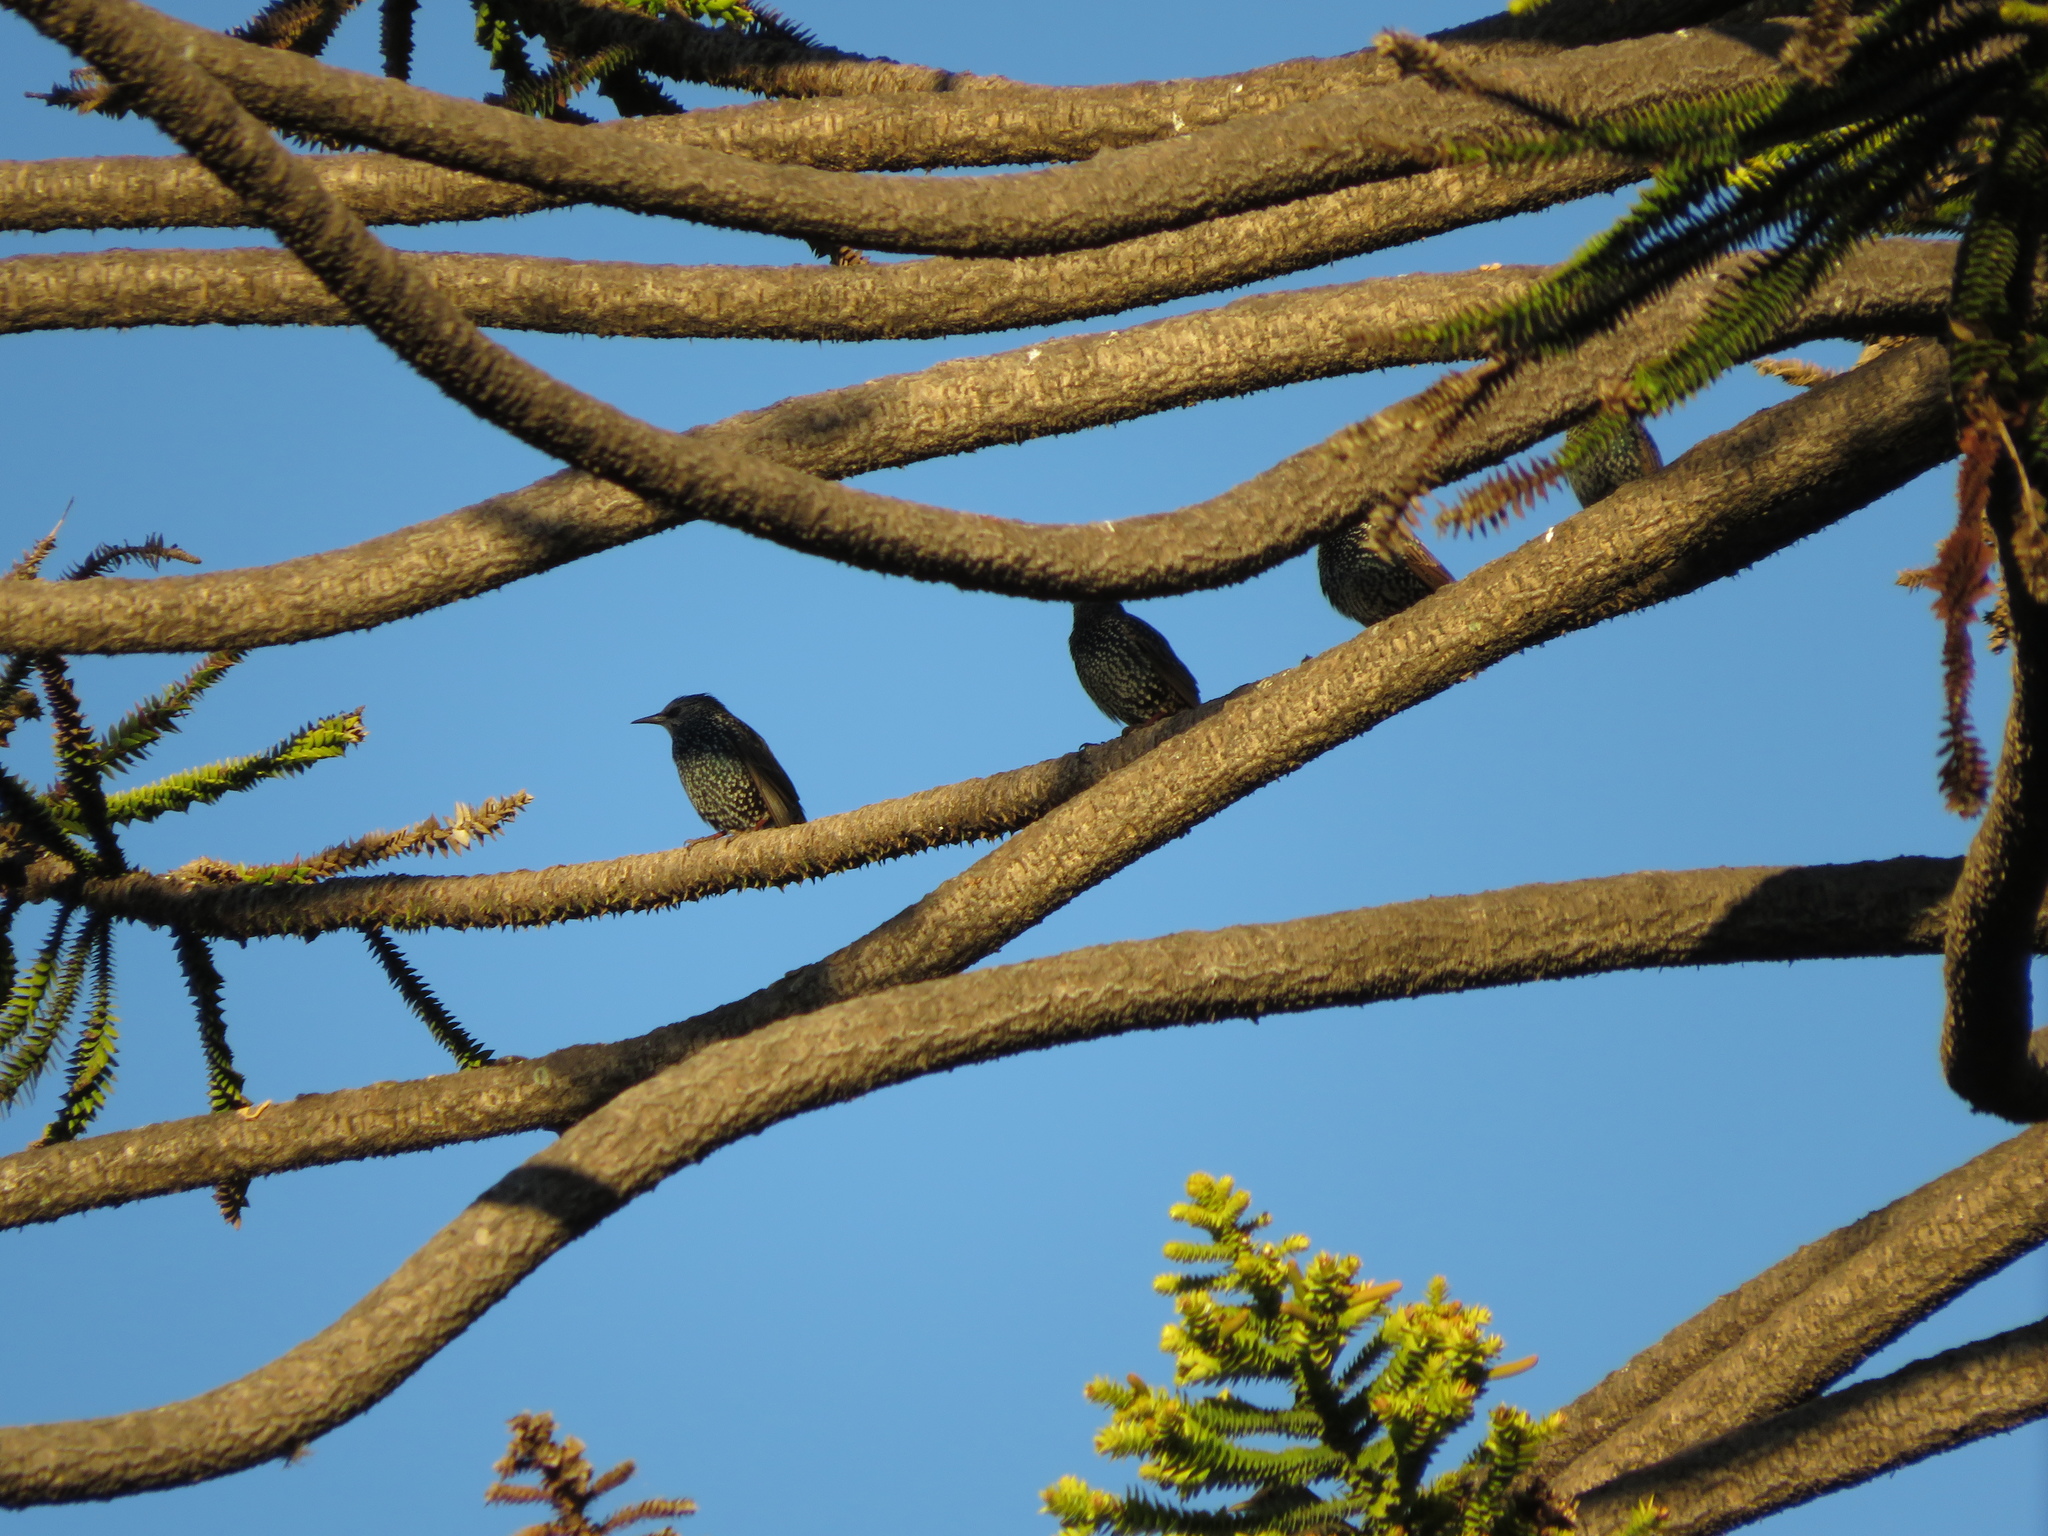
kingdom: Animalia
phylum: Chordata
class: Aves
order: Passeriformes
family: Sturnidae
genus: Sturnus
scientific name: Sturnus vulgaris
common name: Common starling
